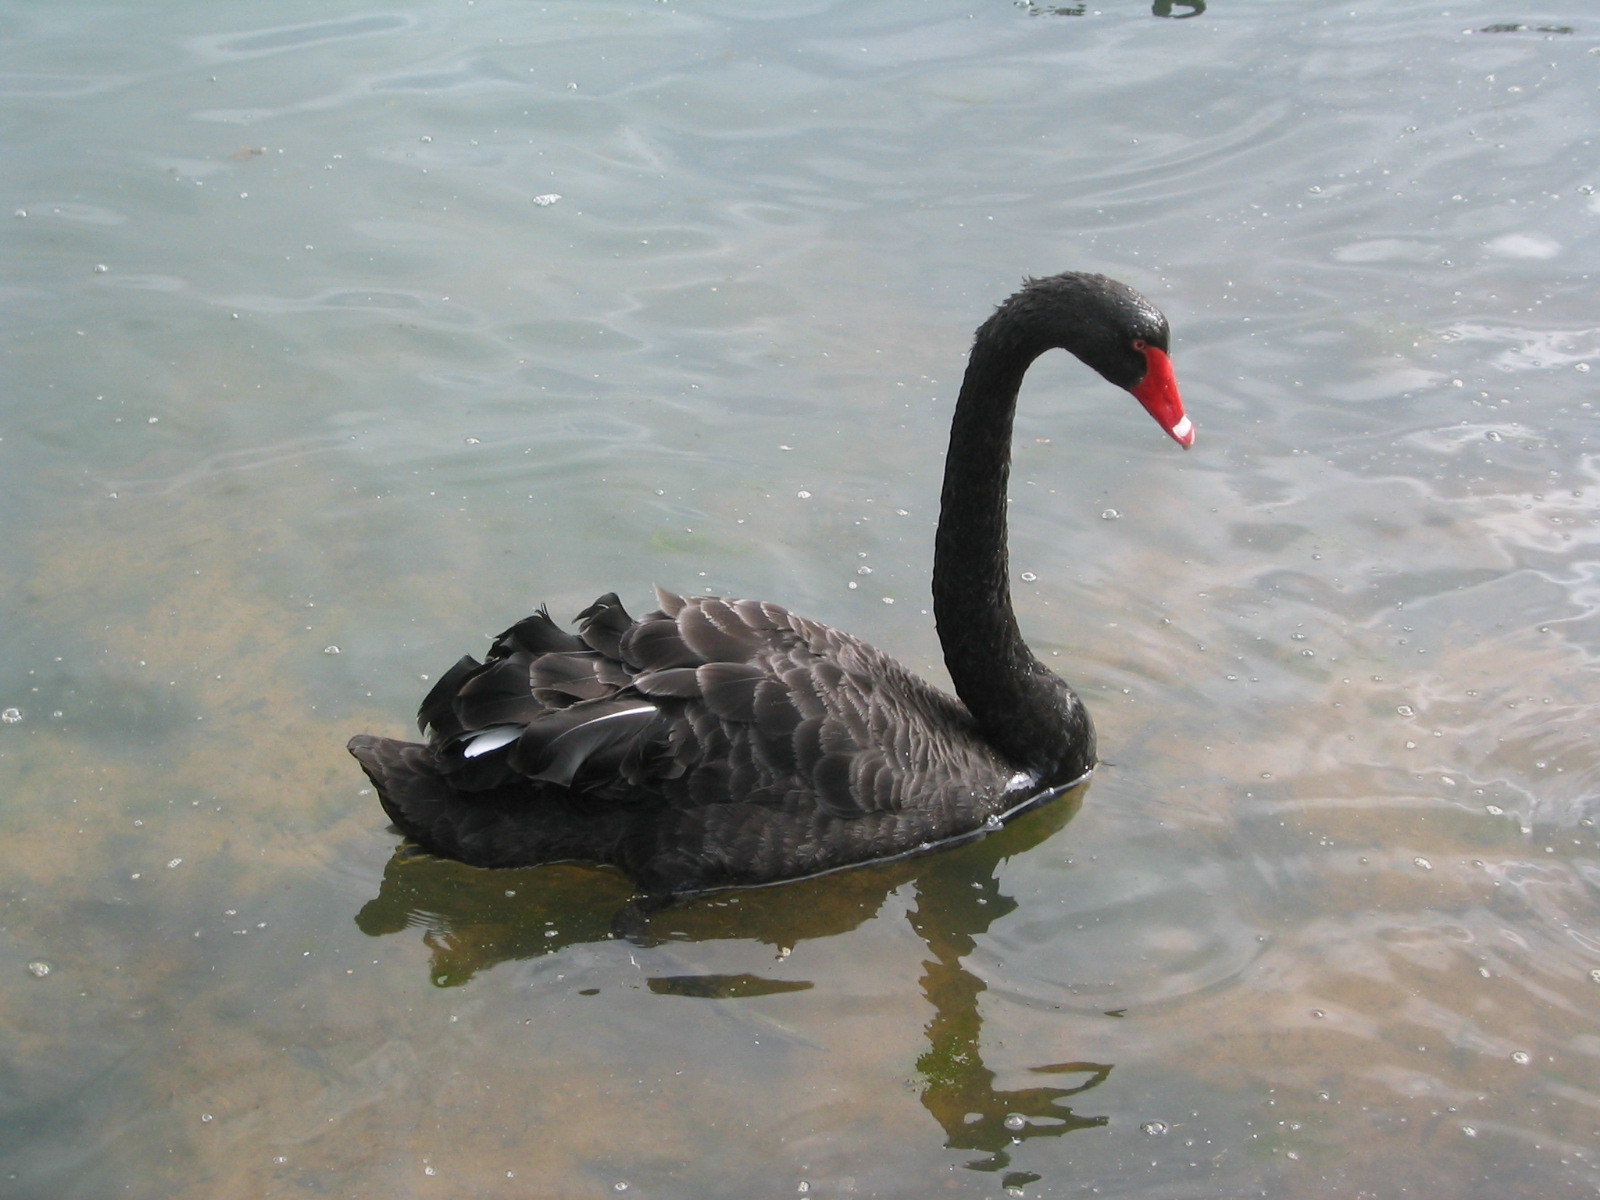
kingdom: Animalia
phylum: Chordata
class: Aves
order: Anseriformes
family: Anatidae
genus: Cygnus
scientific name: Cygnus atratus
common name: Black swan
